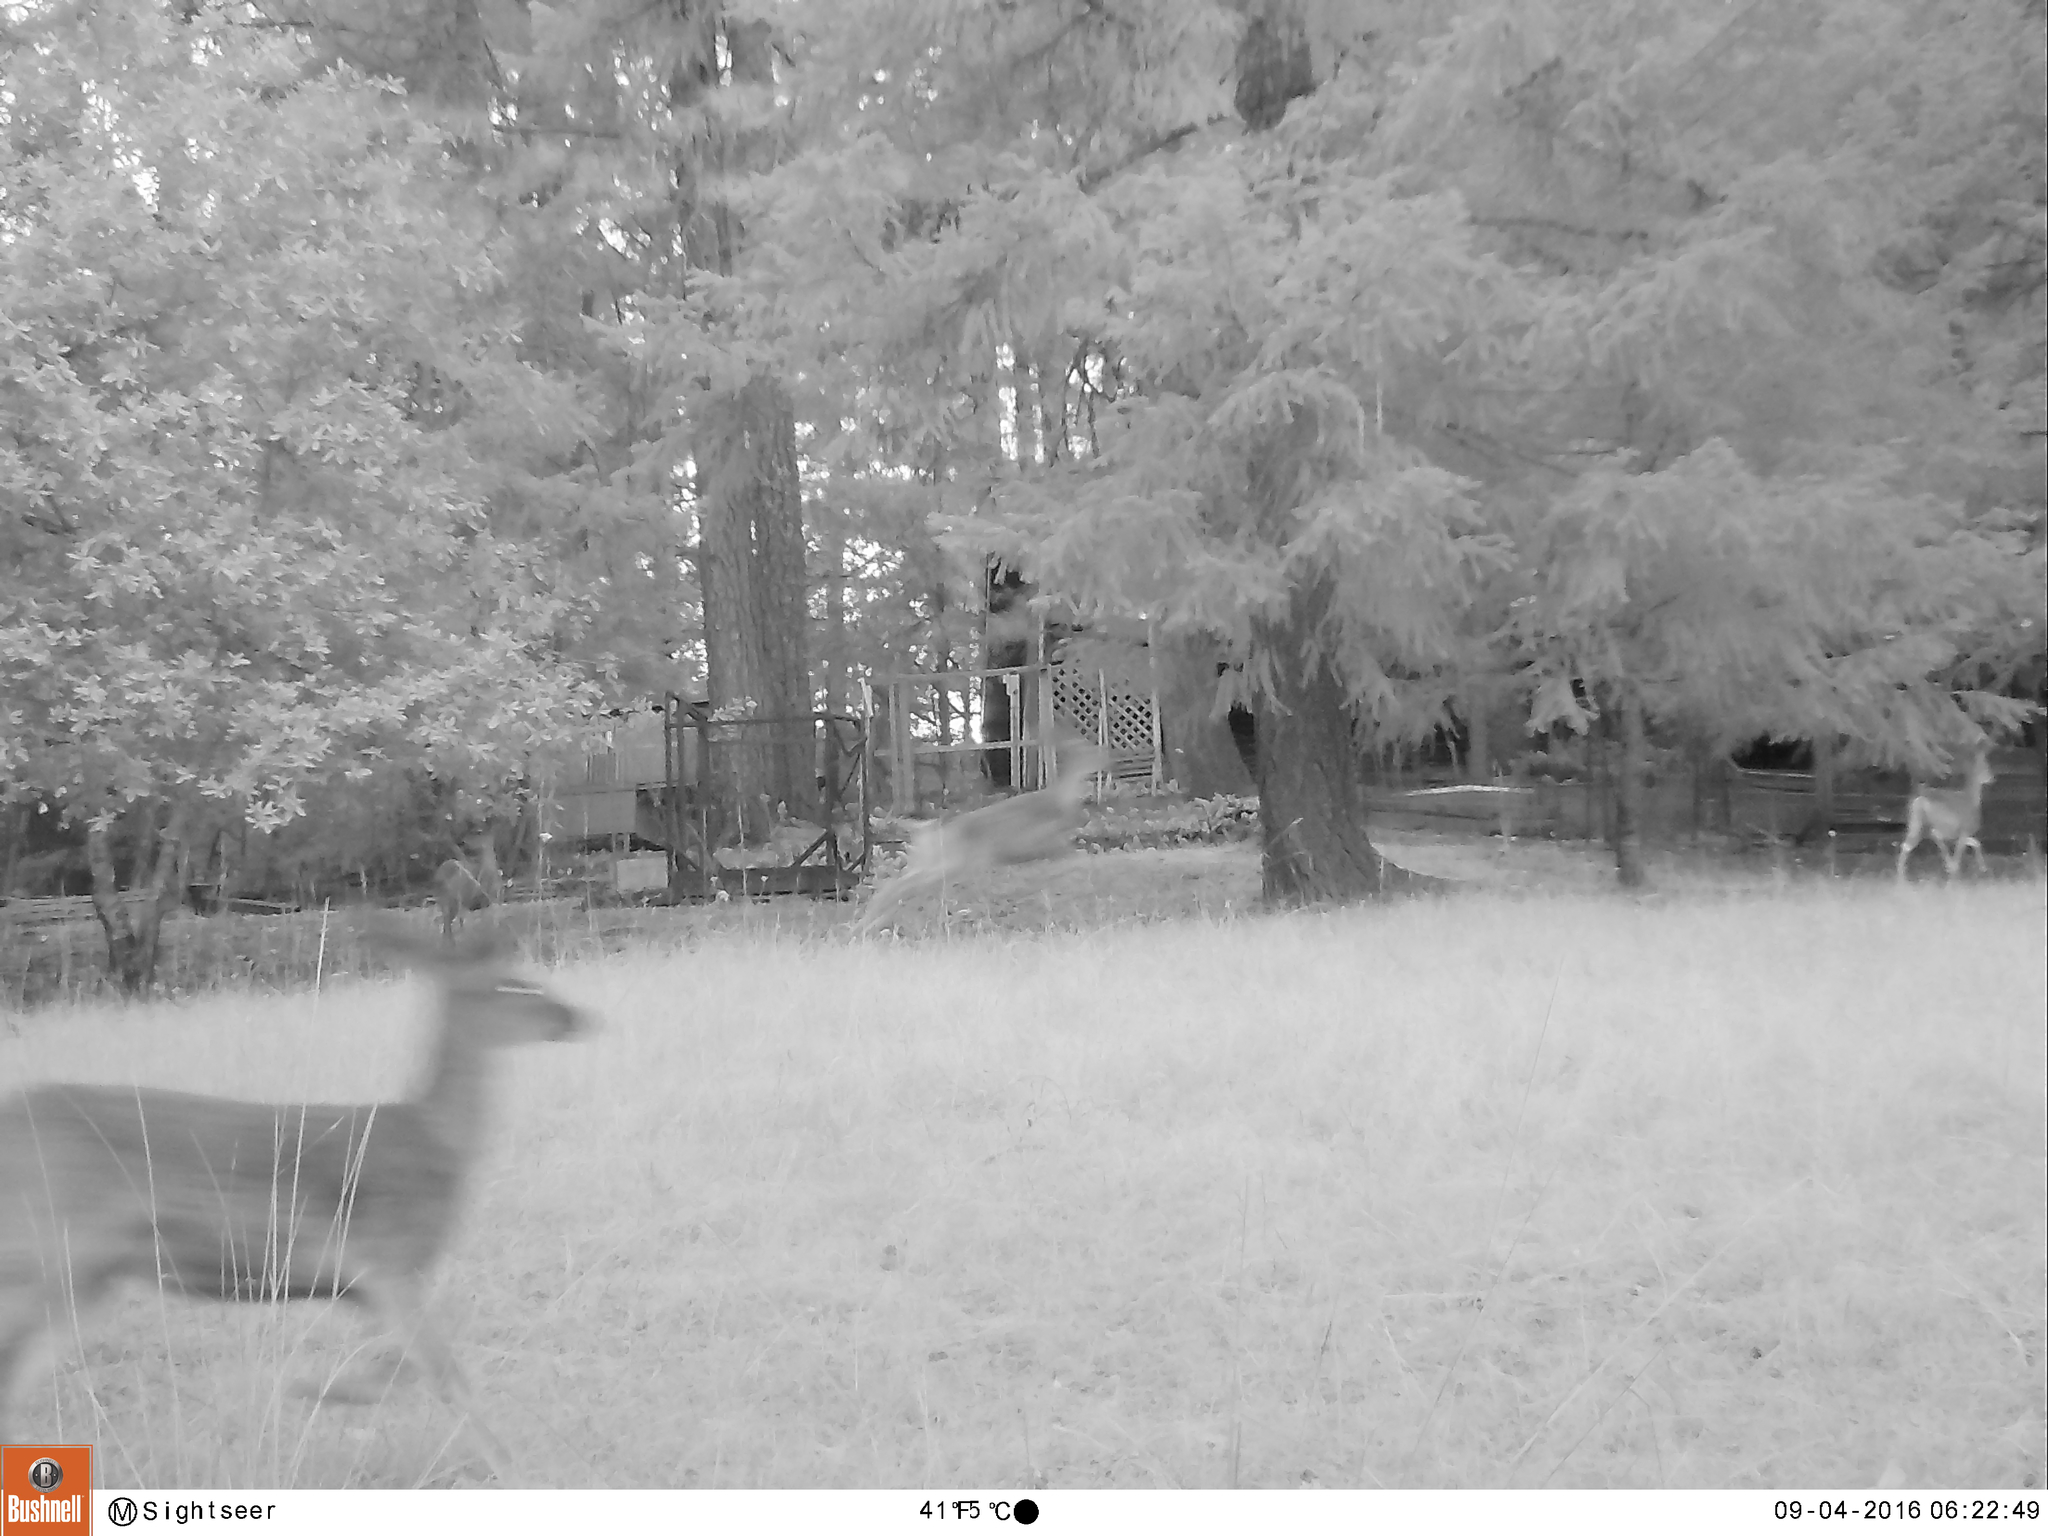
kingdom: Animalia
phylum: Chordata
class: Mammalia
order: Artiodactyla
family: Cervidae
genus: Odocoileus
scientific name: Odocoileus hemionus
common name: Mule deer
